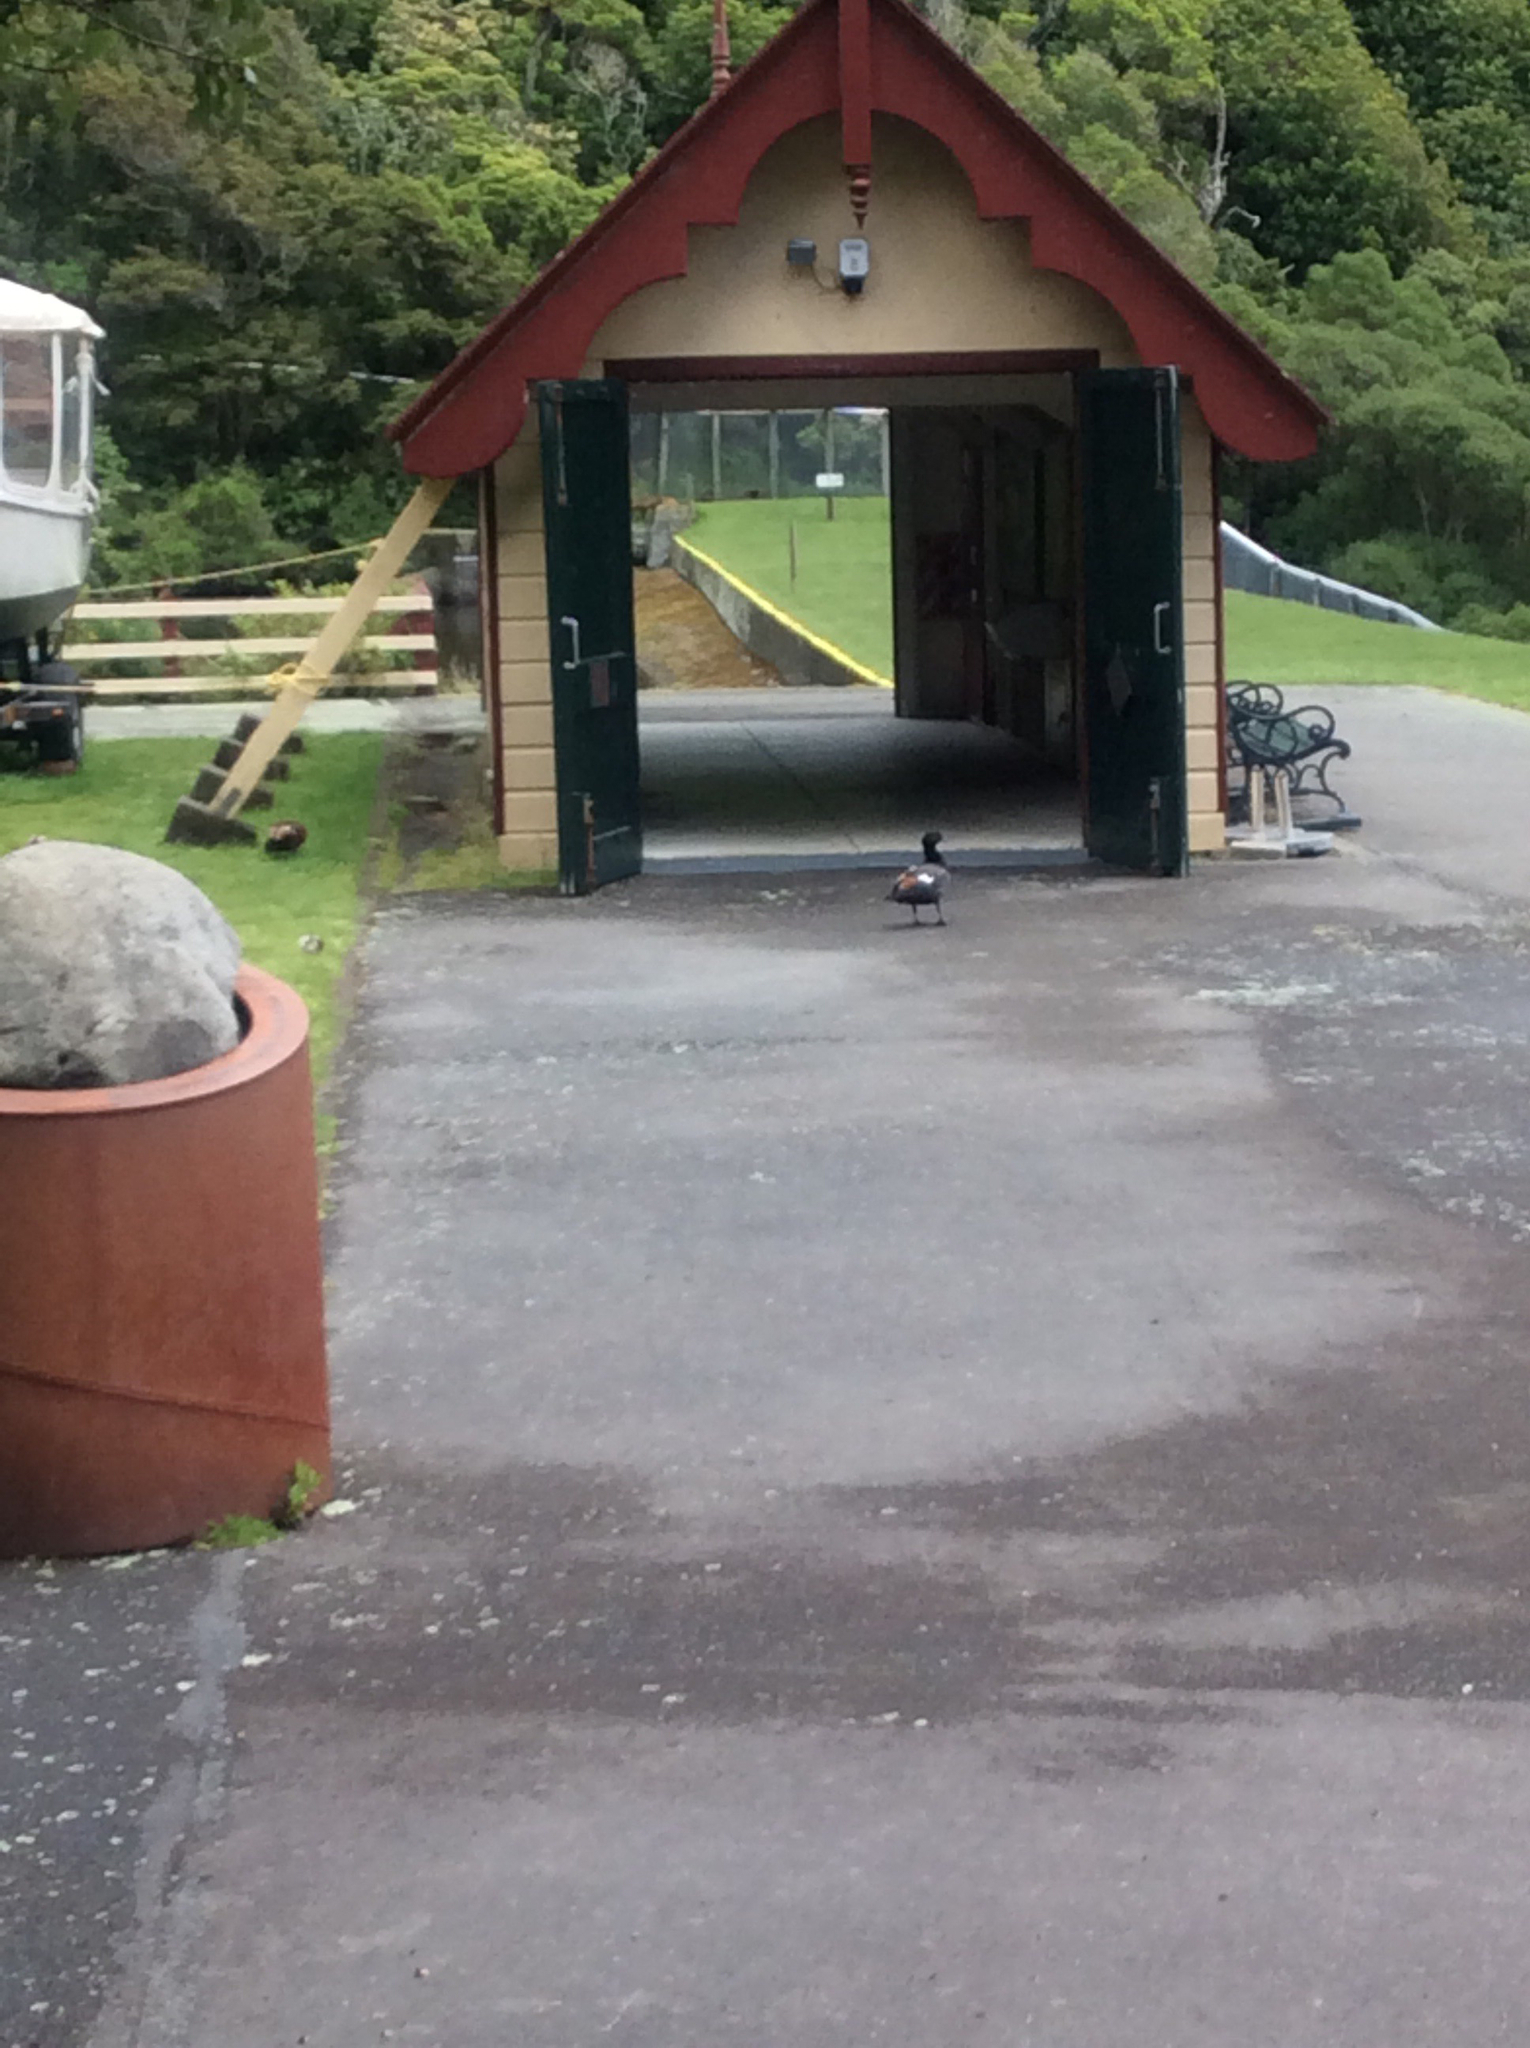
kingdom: Animalia
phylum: Chordata
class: Aves
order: Anseriformes
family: Anatidae
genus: Tadorna
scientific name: Tadorna variegata
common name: Paradise shelduck
